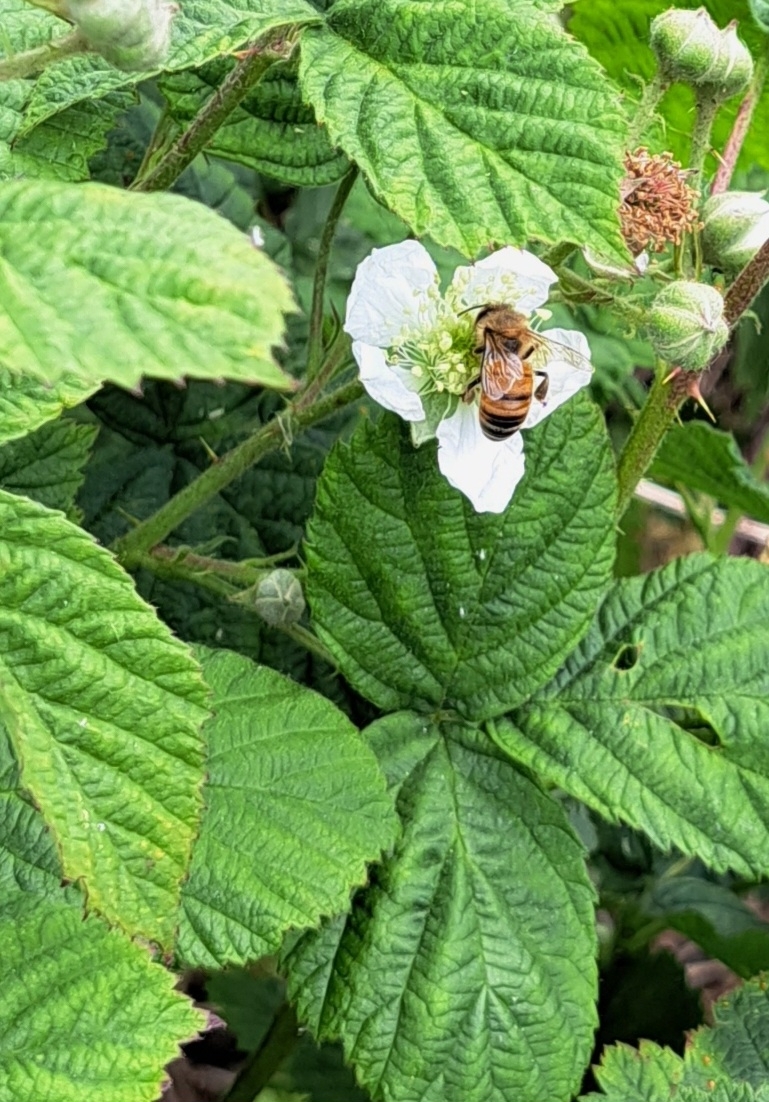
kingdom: Animalia
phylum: Arthropoda
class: Insecta
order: Hymenoptera
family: Apidae
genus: Apis
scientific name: Apis mellifera
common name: Honey bee
